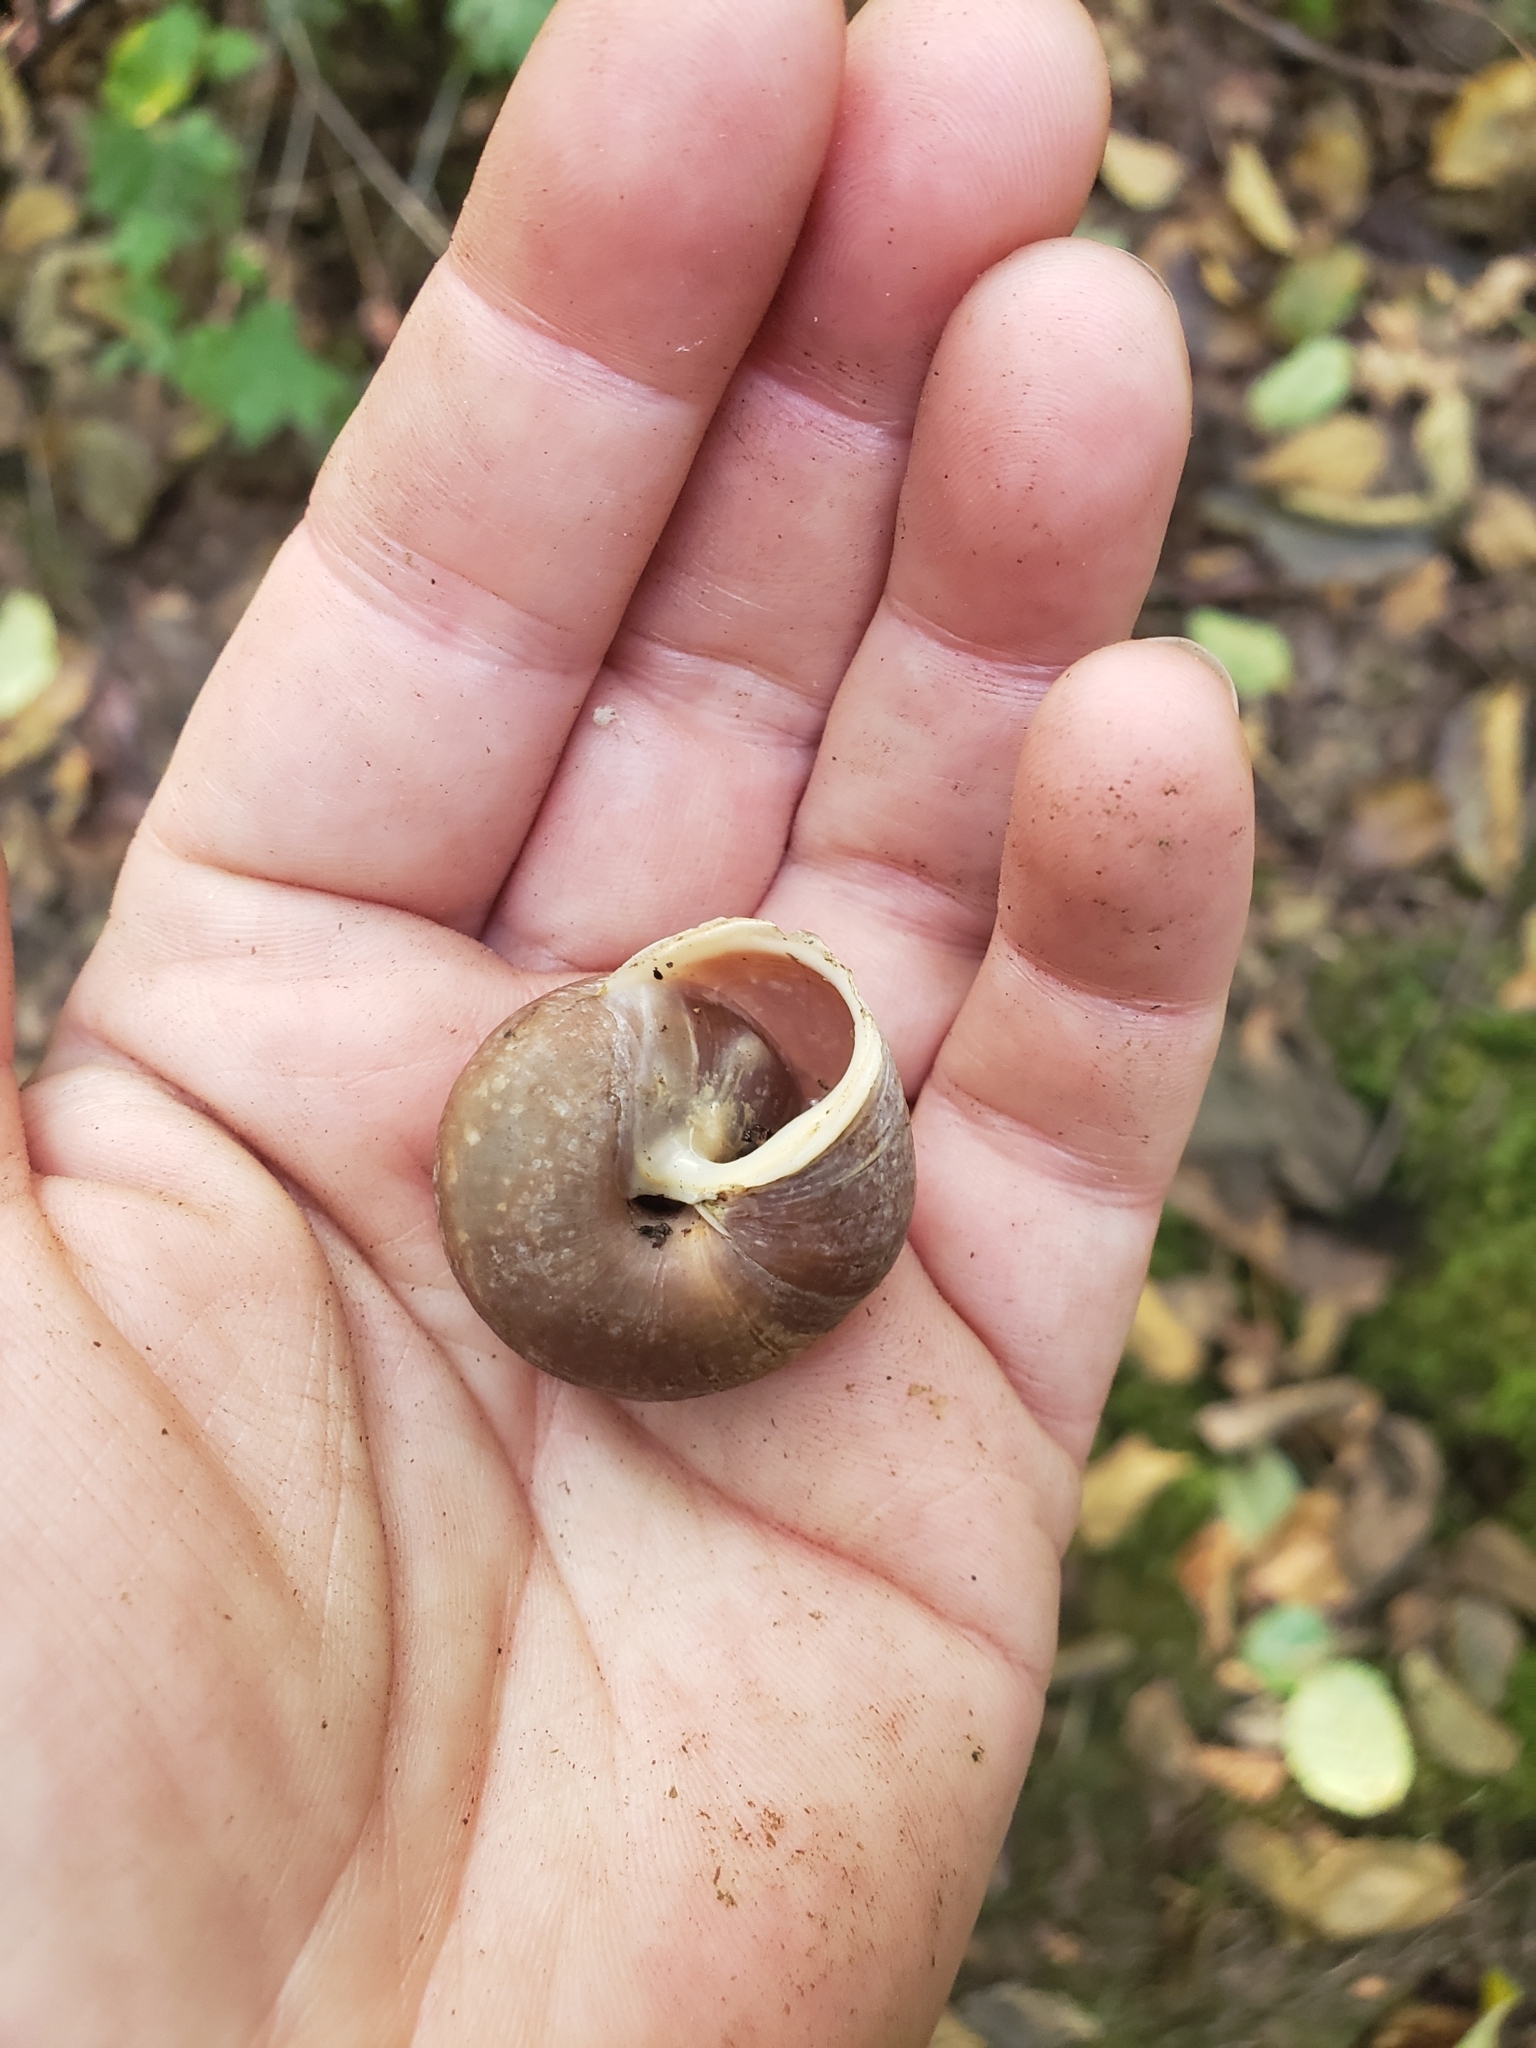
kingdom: Animalia
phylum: Mollusca
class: Gastropoda
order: Stylommatophora
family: Polygyridae
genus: Allogona
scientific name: Allogona townsendiana
